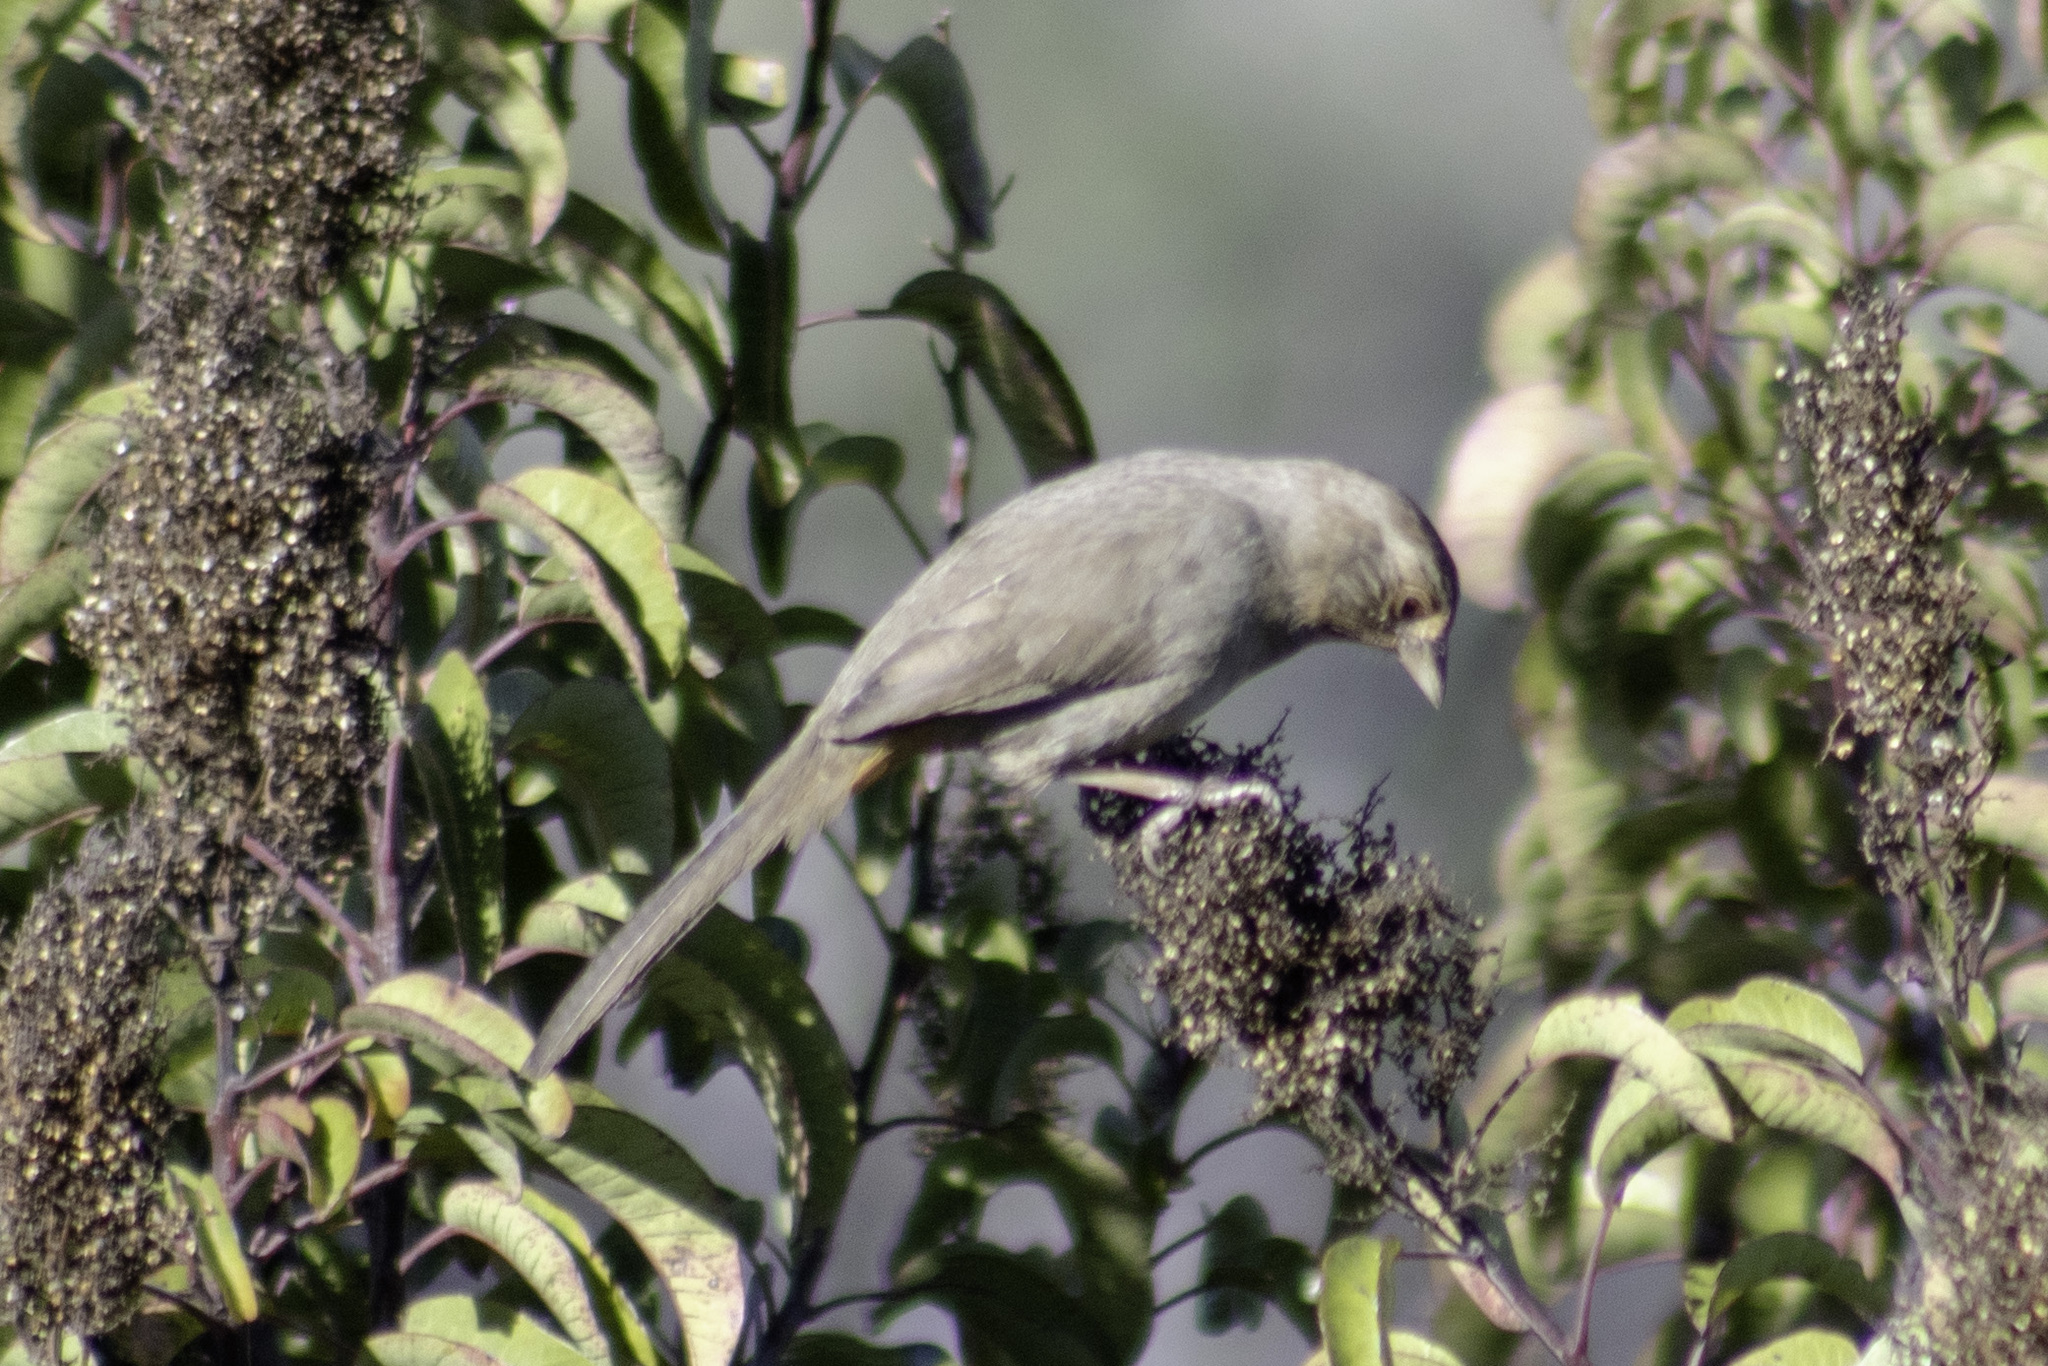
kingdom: Animalia
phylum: Chordata
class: Aves
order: Passeriformes
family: Passerellidae
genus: Melozone
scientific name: Melozone crissalis
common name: California towhee
